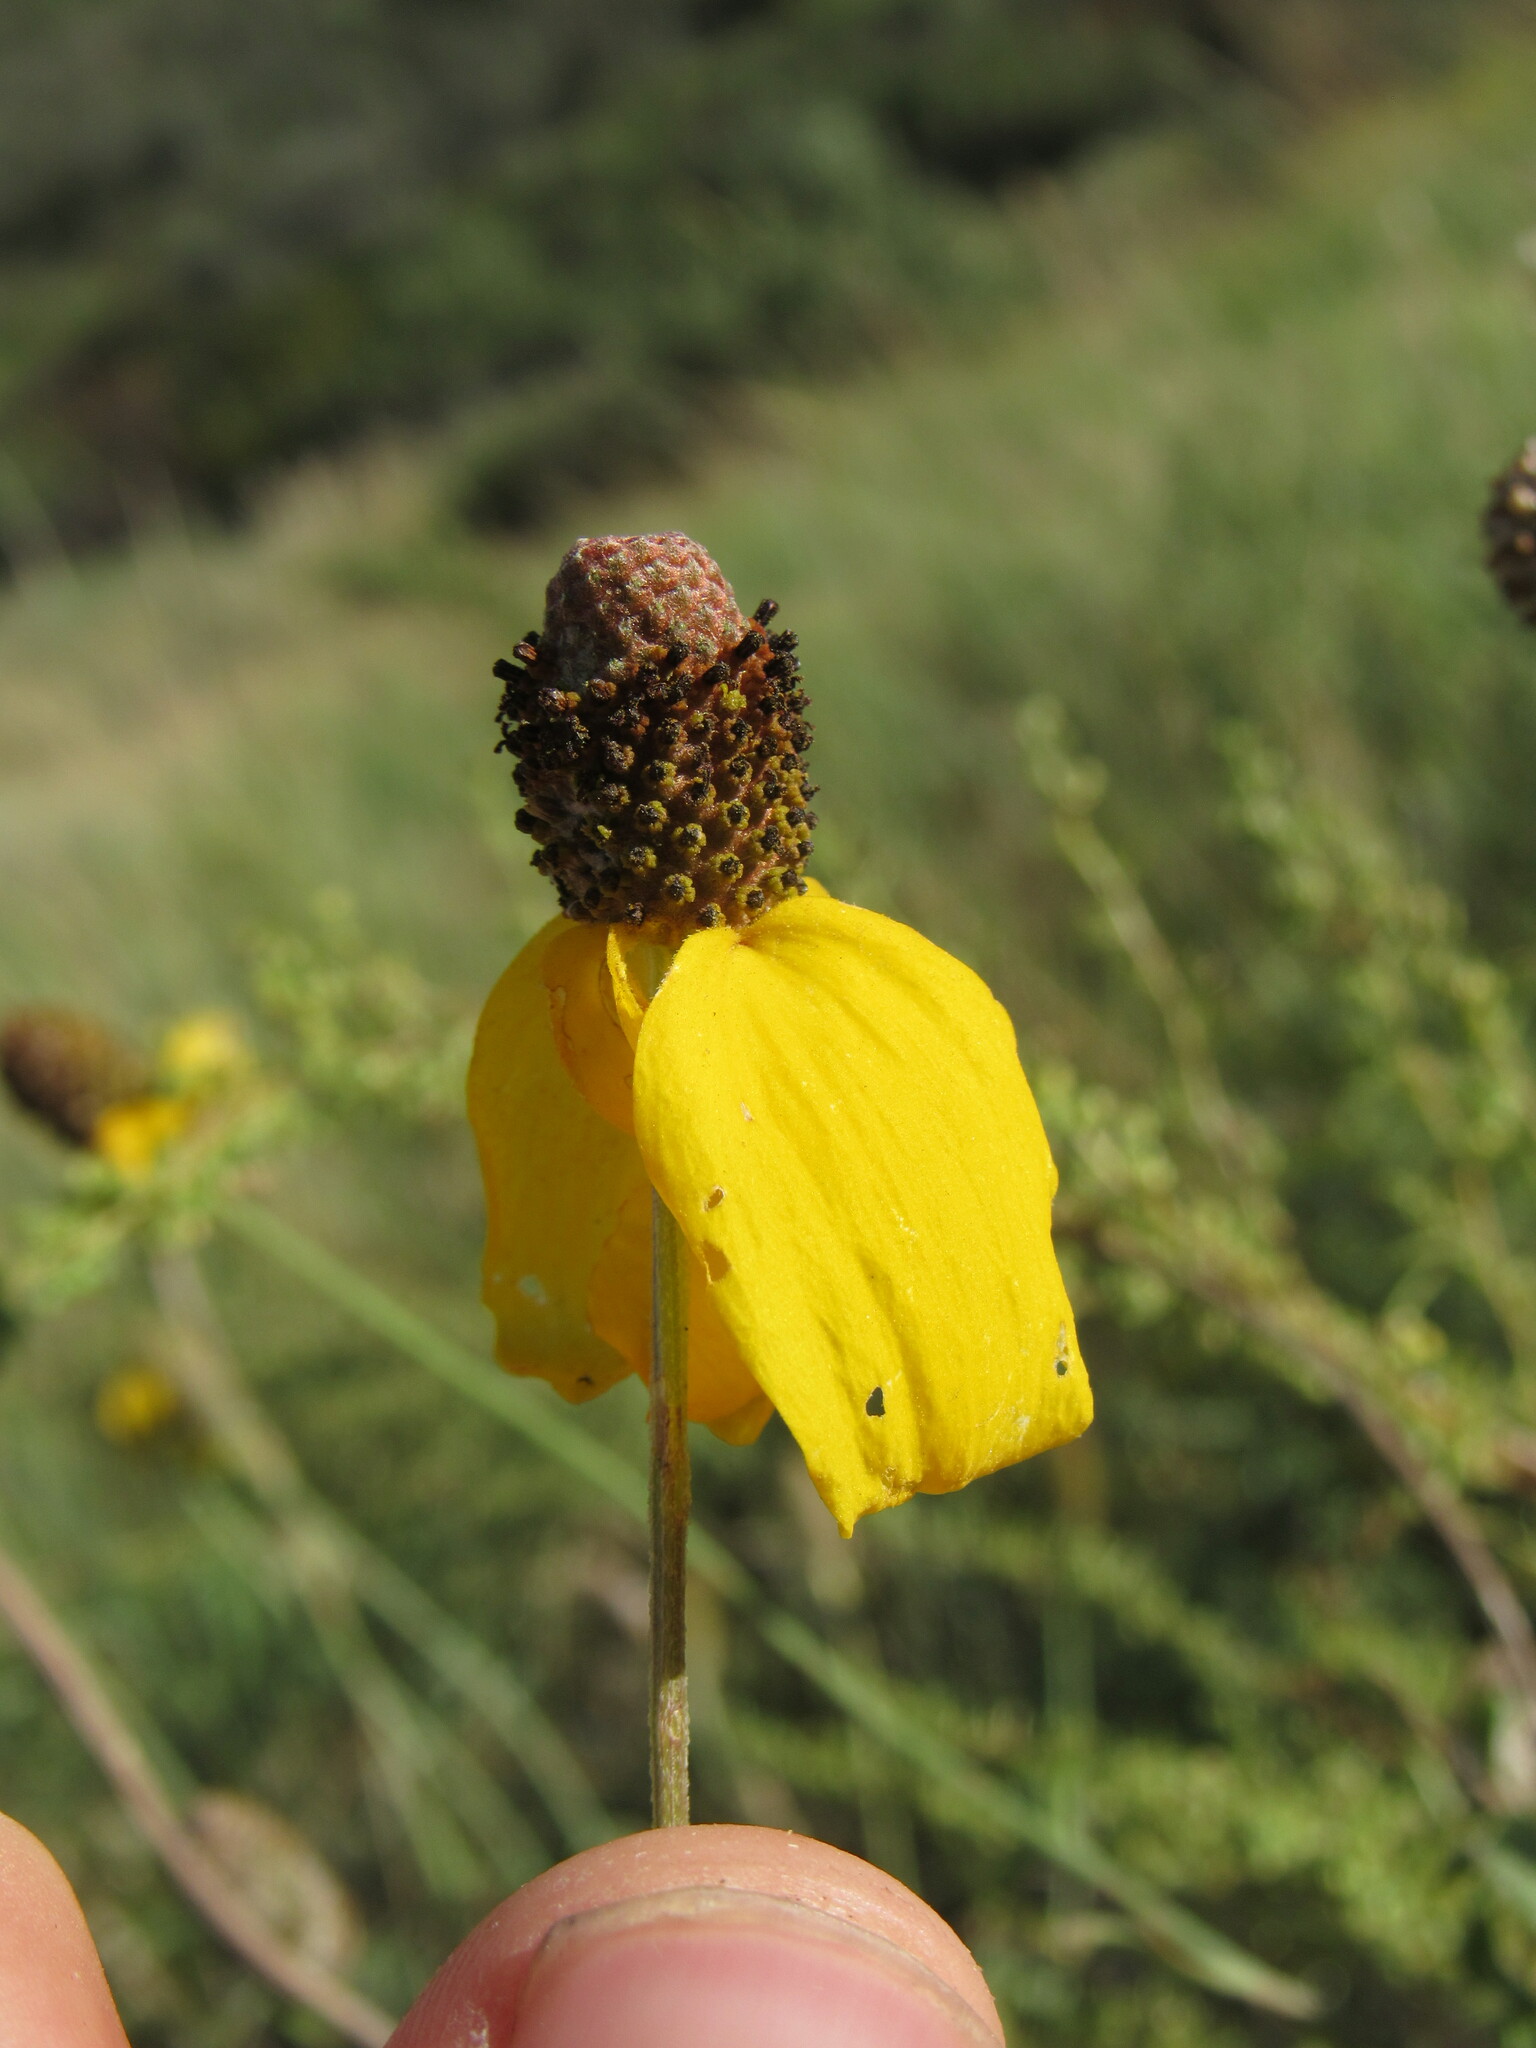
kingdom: Plantae
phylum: Tracheophyta
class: Magnoliopsida
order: Asterales
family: Asteraceae
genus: Ratibida
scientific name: Ratibida columnifera
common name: Prairie coneflower
